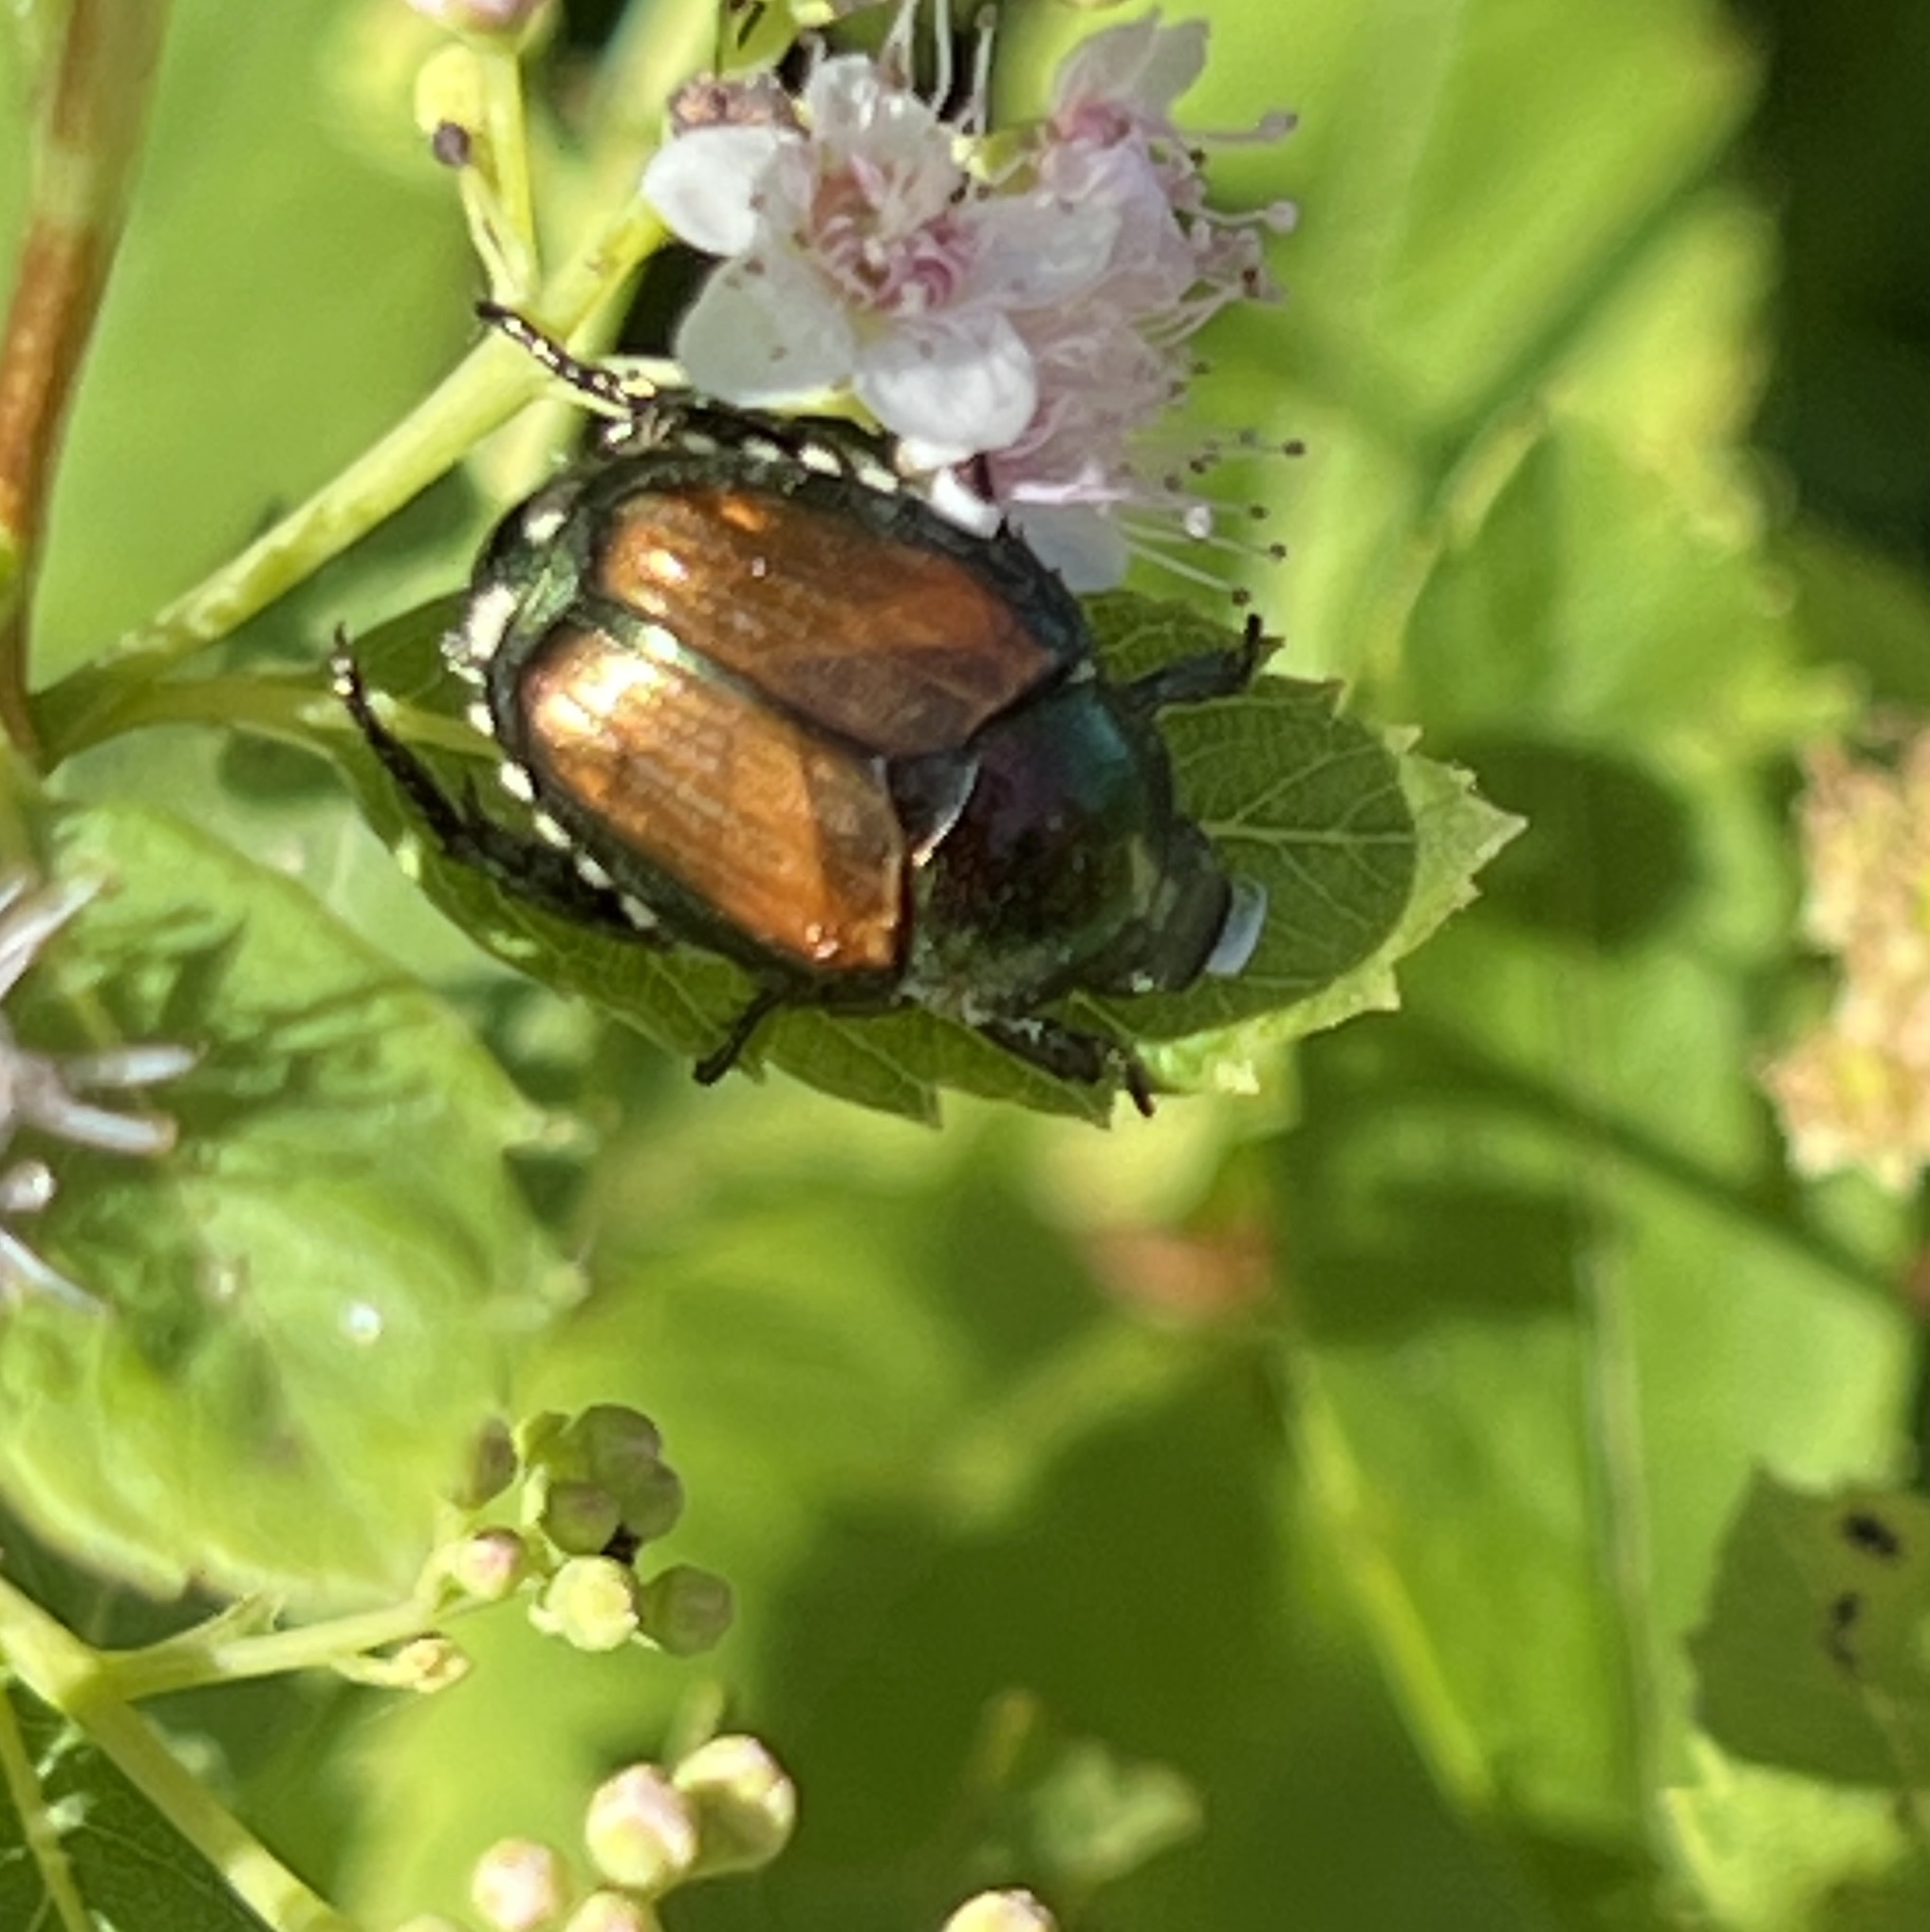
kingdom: Animalia
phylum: Arthropoda
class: Insecta
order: Coleoptera
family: Scarabaeidae
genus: Popillia
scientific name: Popillia japonica
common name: Japanese beetle
